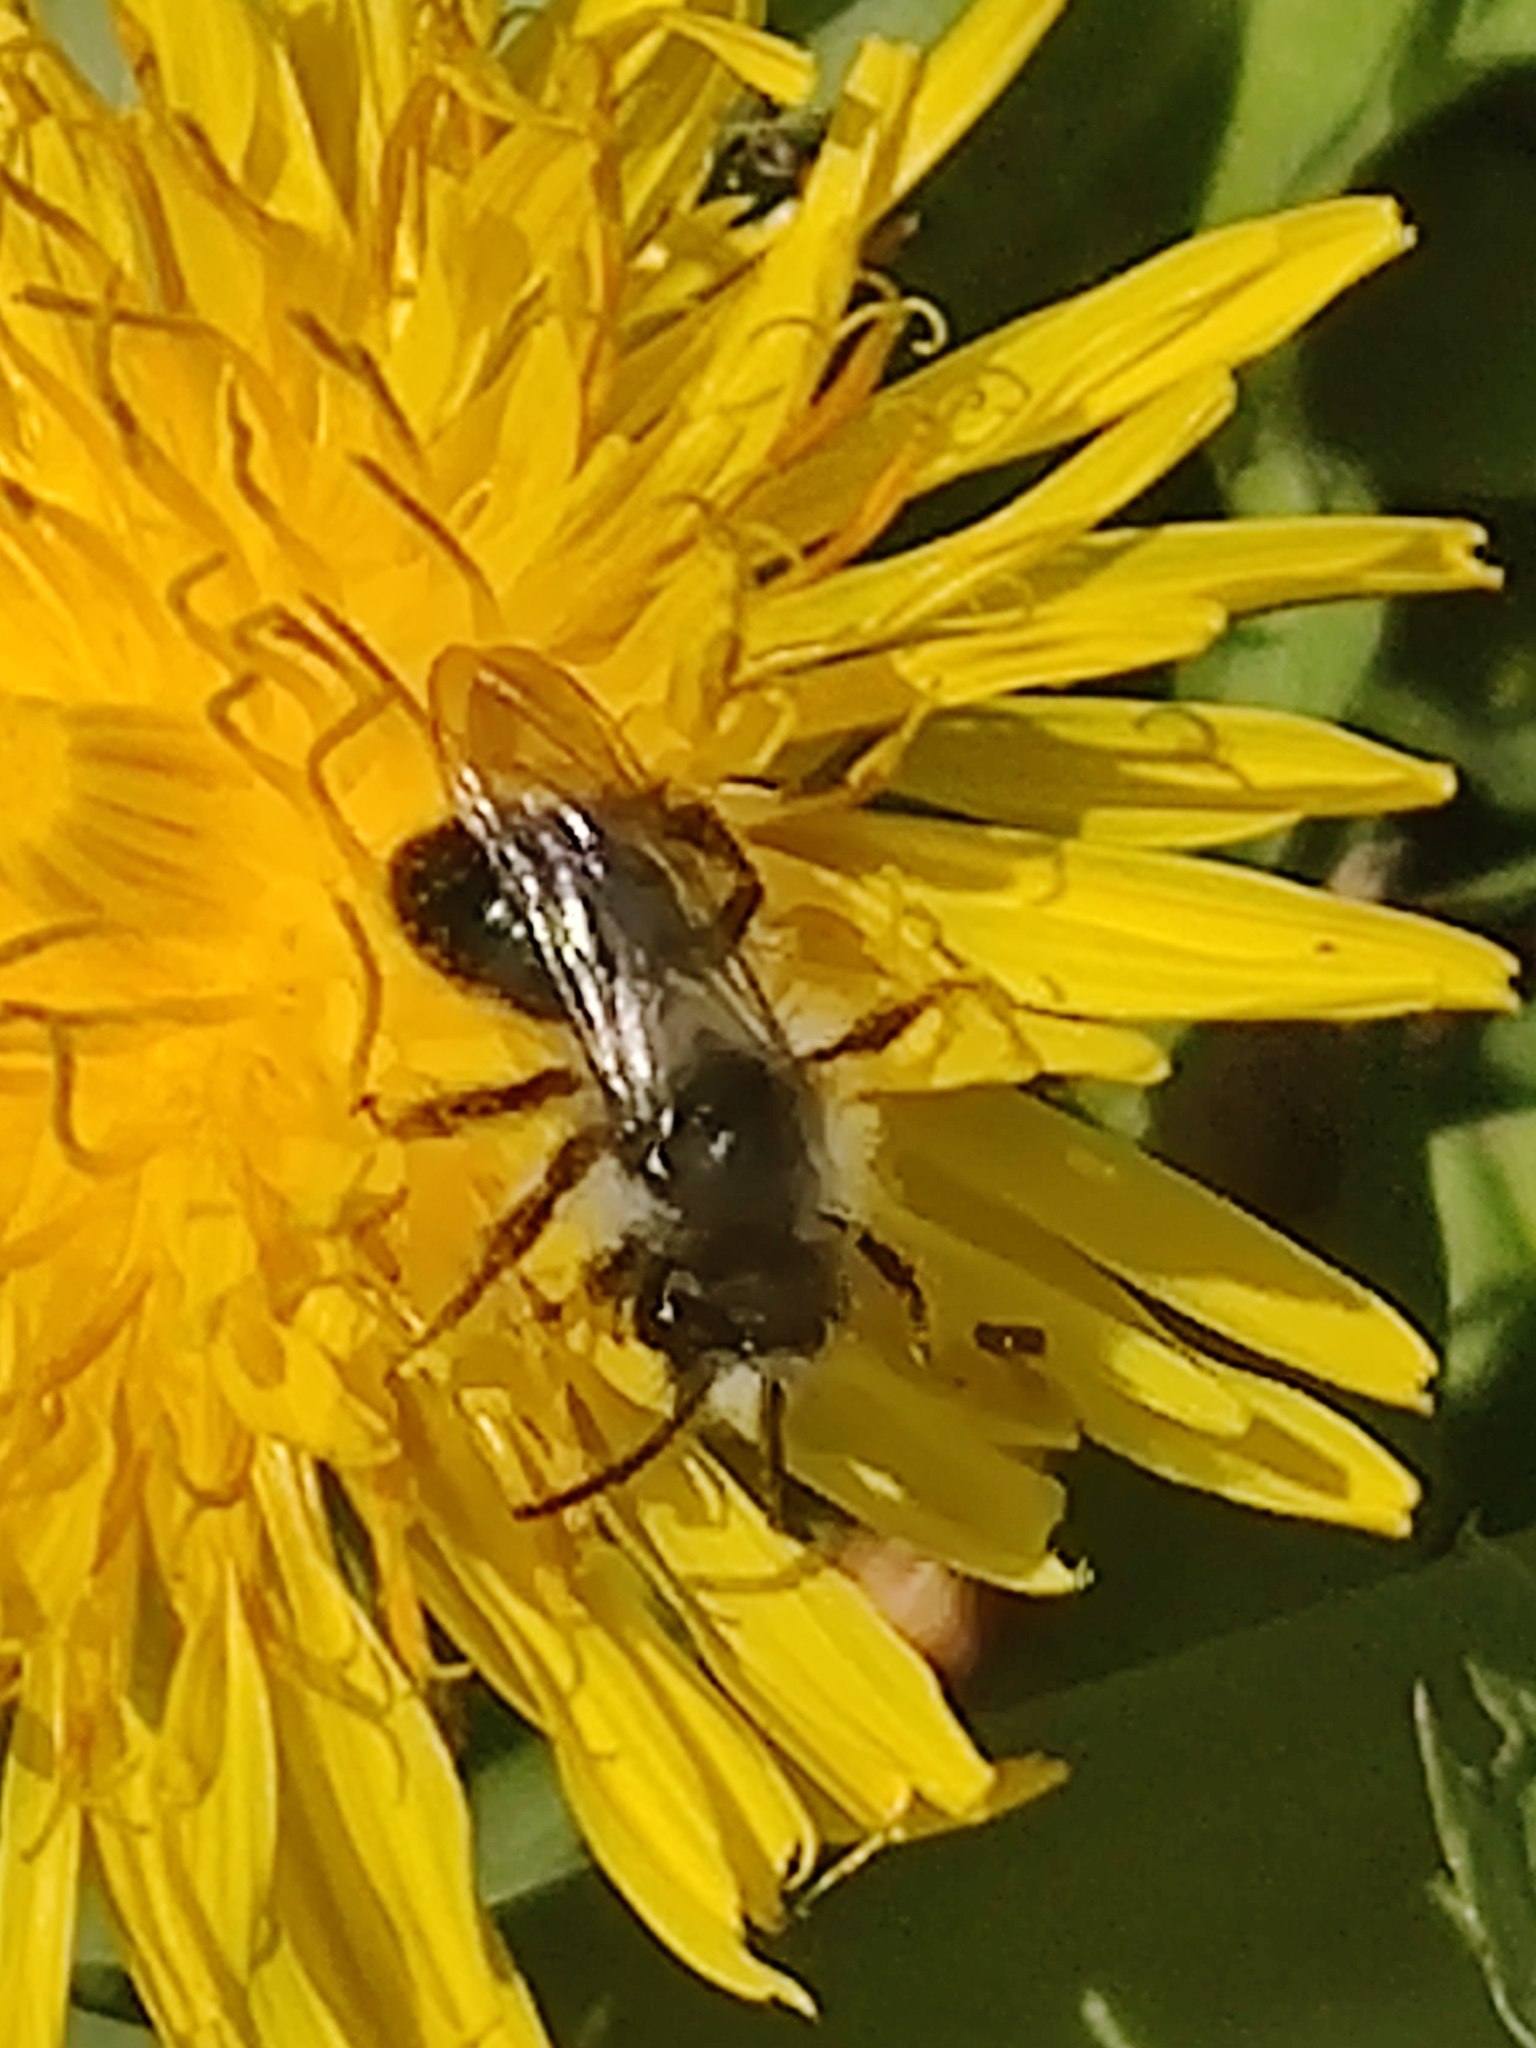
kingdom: Animalia
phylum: Arthropoda
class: Insecta
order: Hymenoptera
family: Andrenidae
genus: Andrena
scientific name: Andrena cineraria
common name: Ashy mining bee
